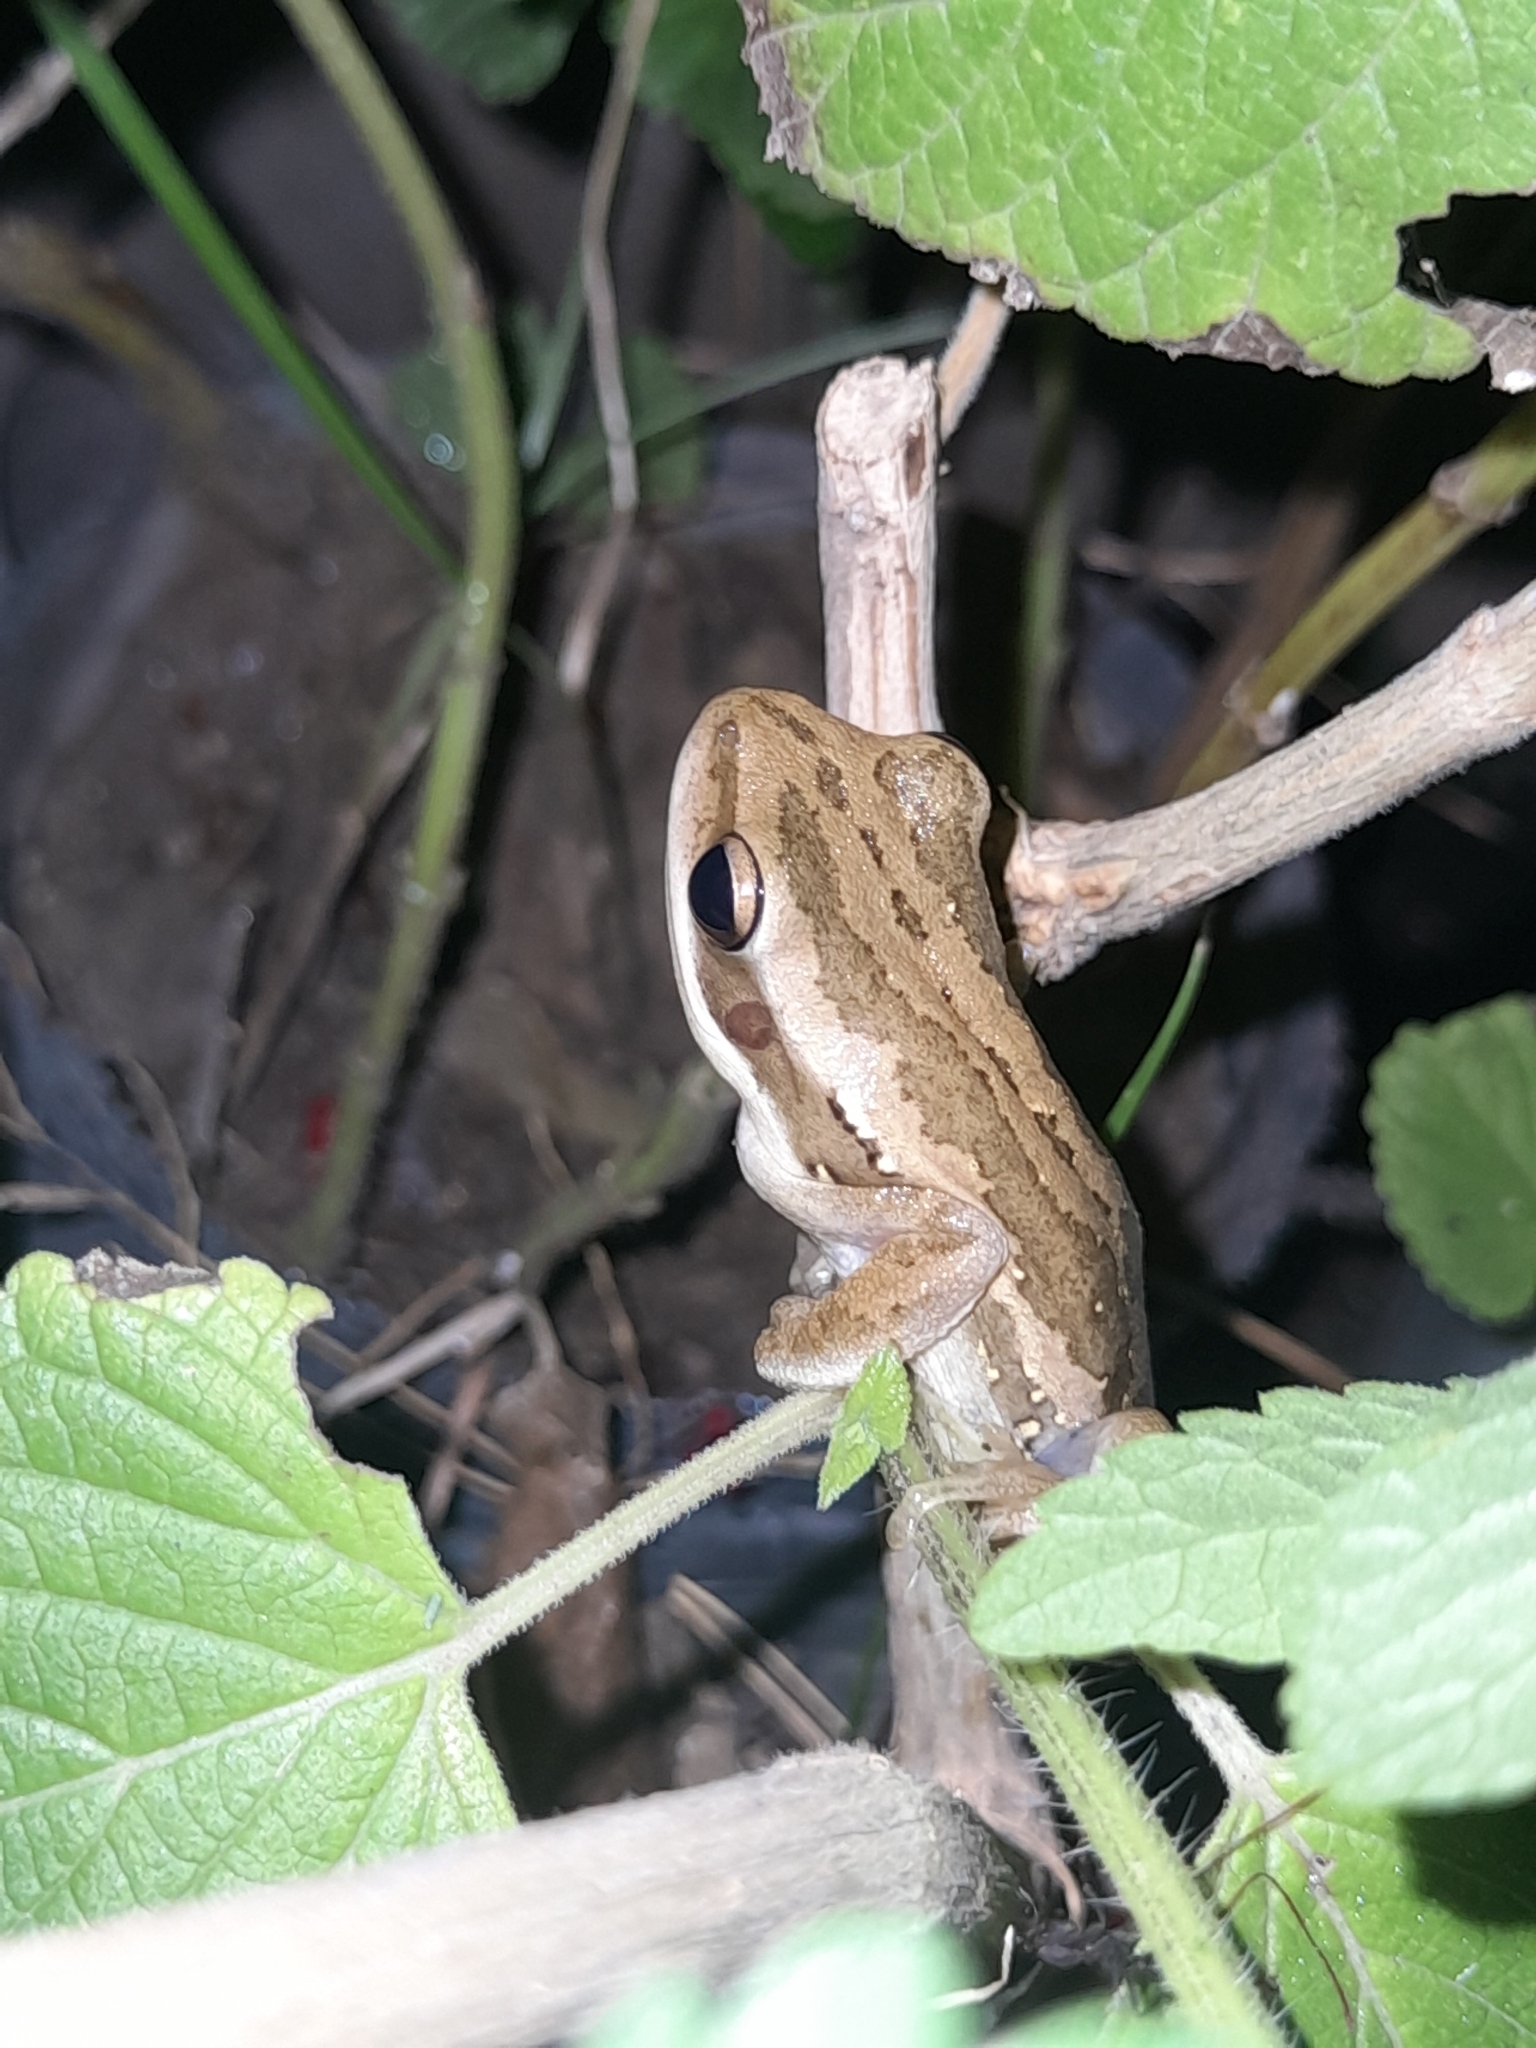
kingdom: Animalia
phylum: Chordata
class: Amphibia
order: Anura
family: Hylidae
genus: Boana
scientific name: Boana pulchella
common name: Montevideo treefrog
